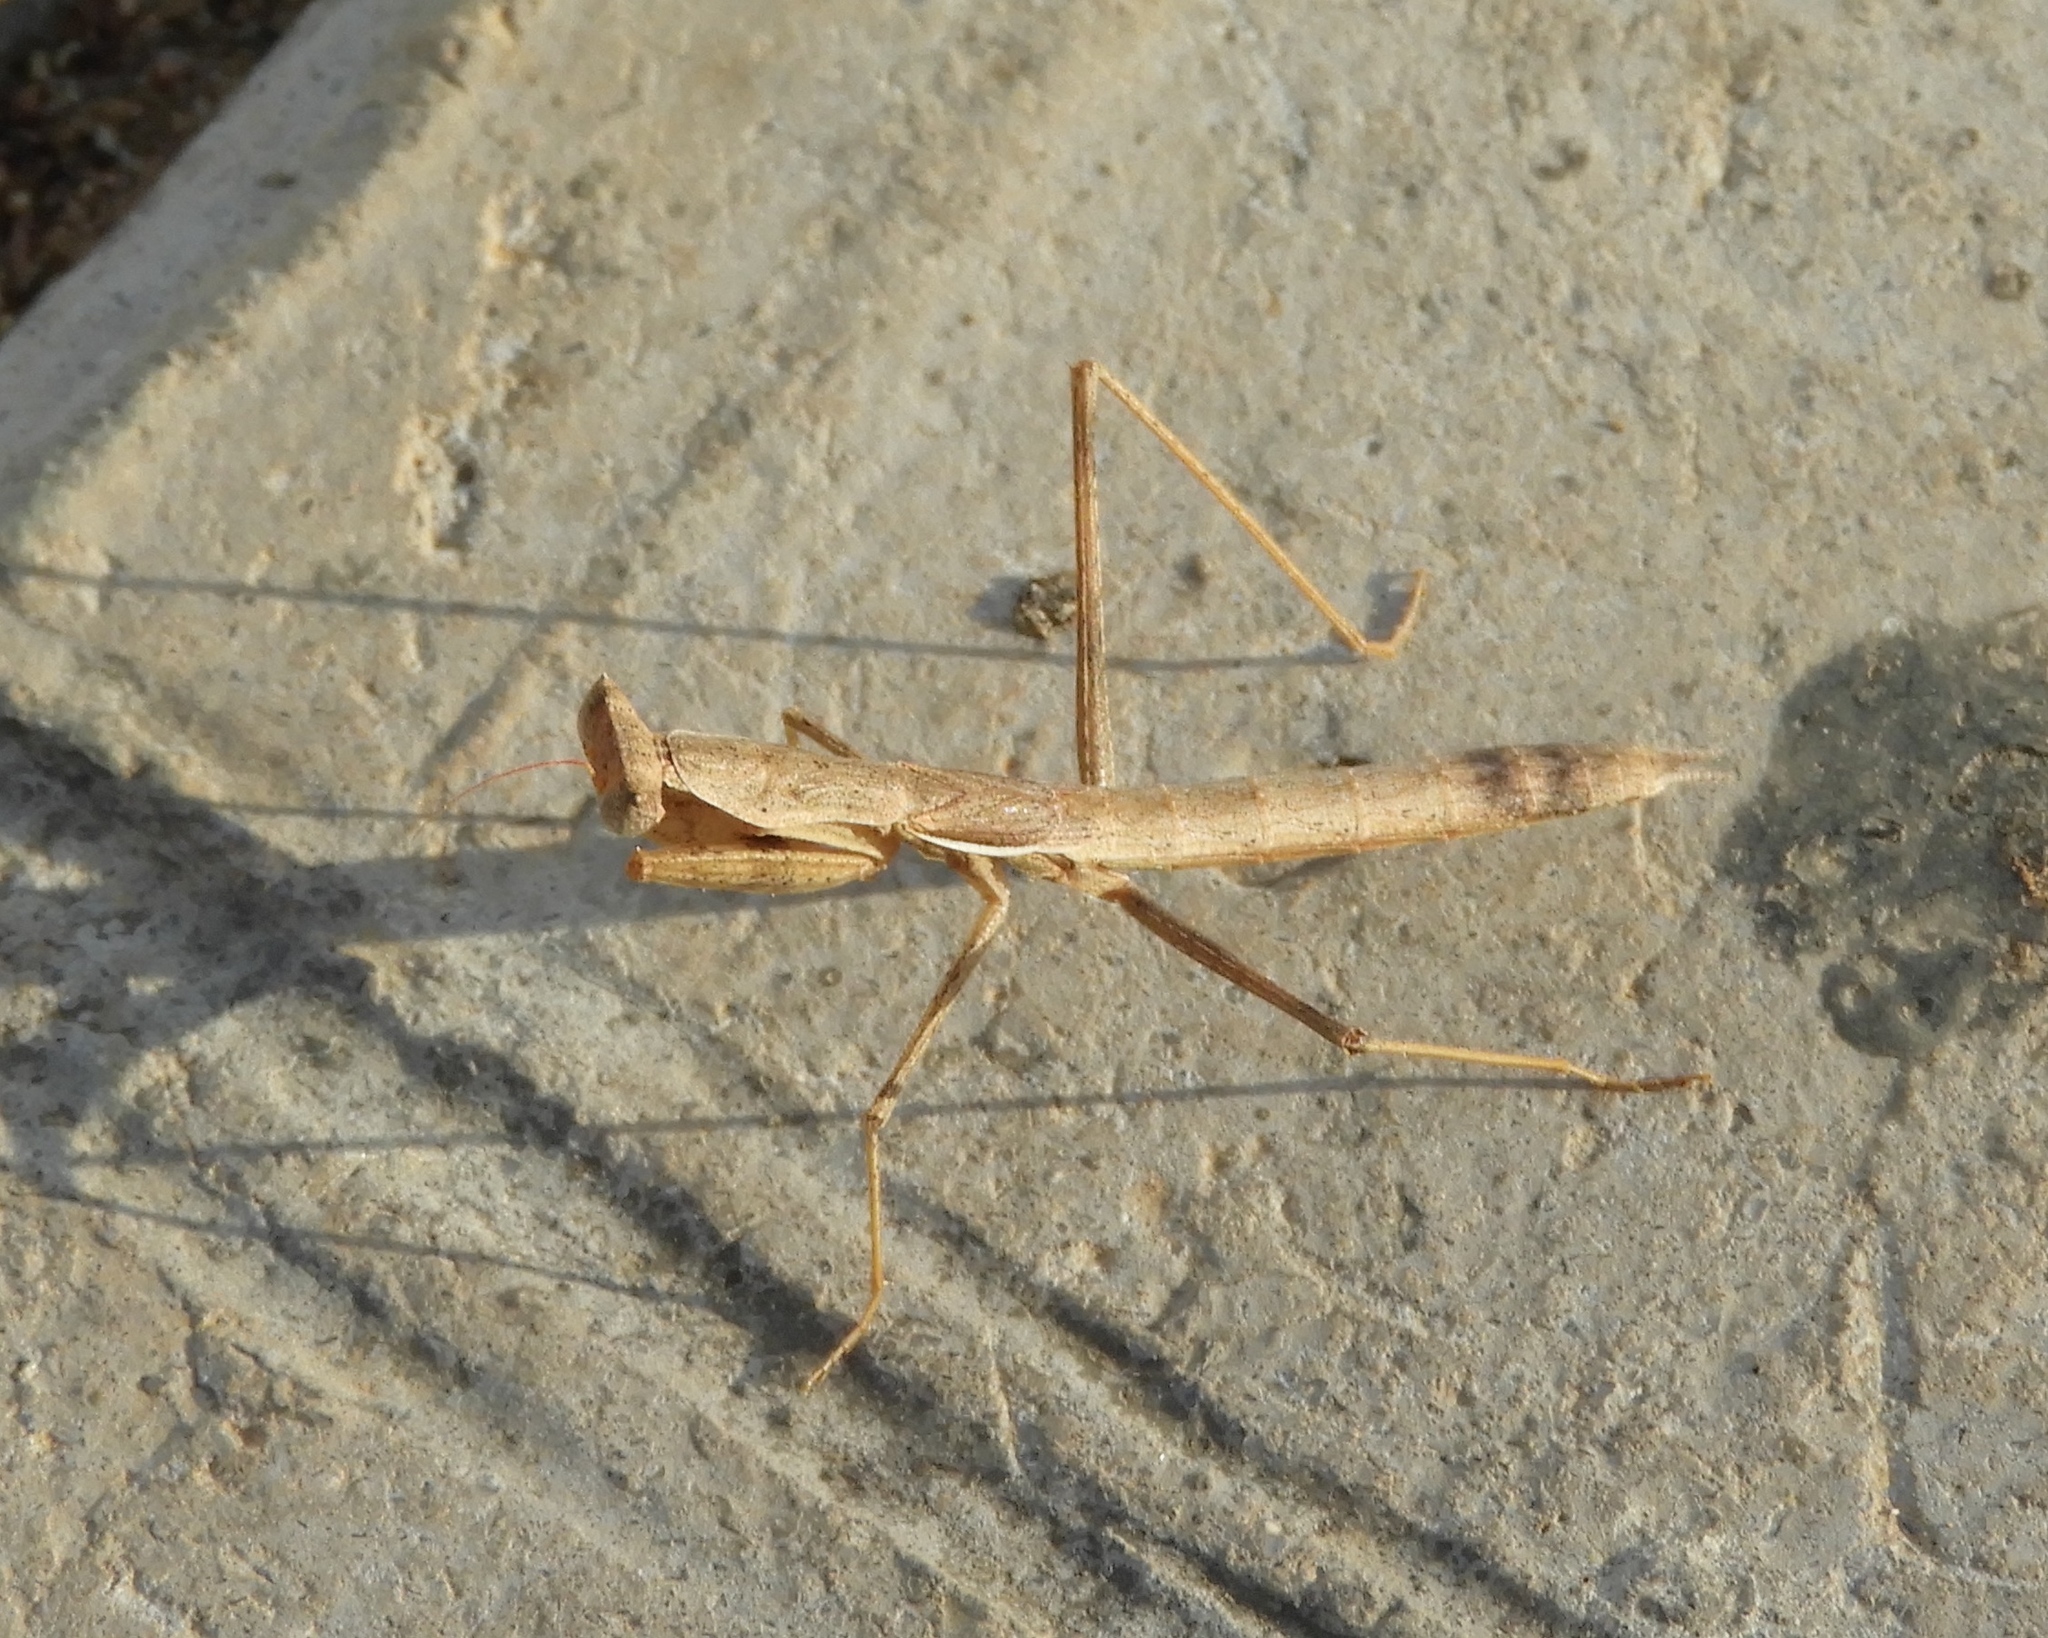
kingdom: Animalia
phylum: Arthropoda
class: Insecta
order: Mantodea
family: Amelidae
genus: Yersinia
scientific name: Yersinia mexicana
